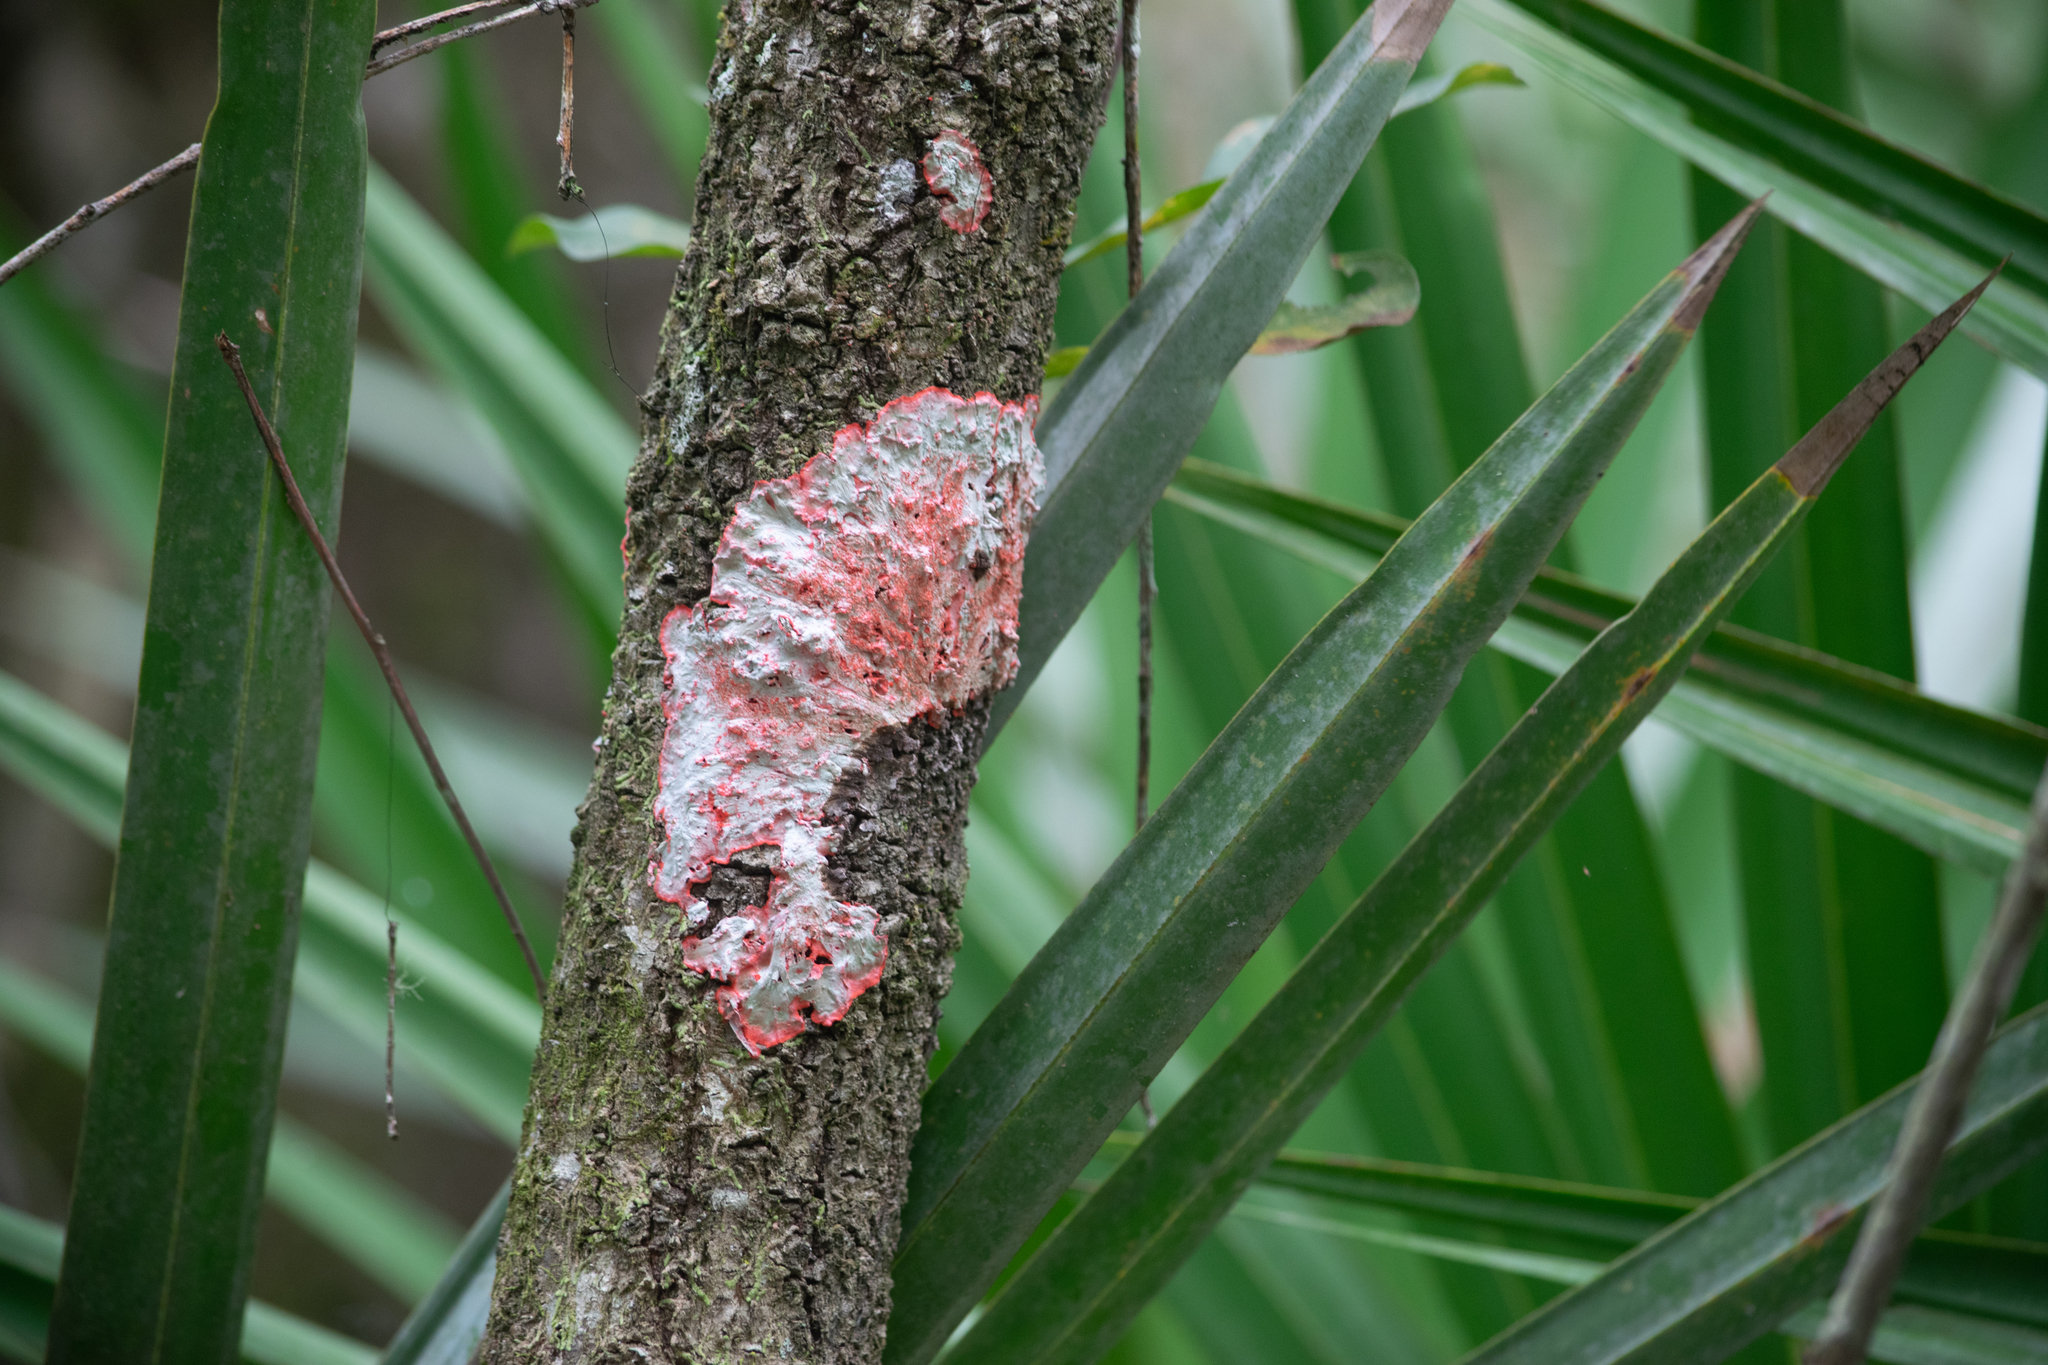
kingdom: Fungi
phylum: Ascomycota
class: Arthoniomycetes
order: Arthoniales
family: Arthoniaceae
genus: Herpothallon
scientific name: Herpothallon rubrocinctum
